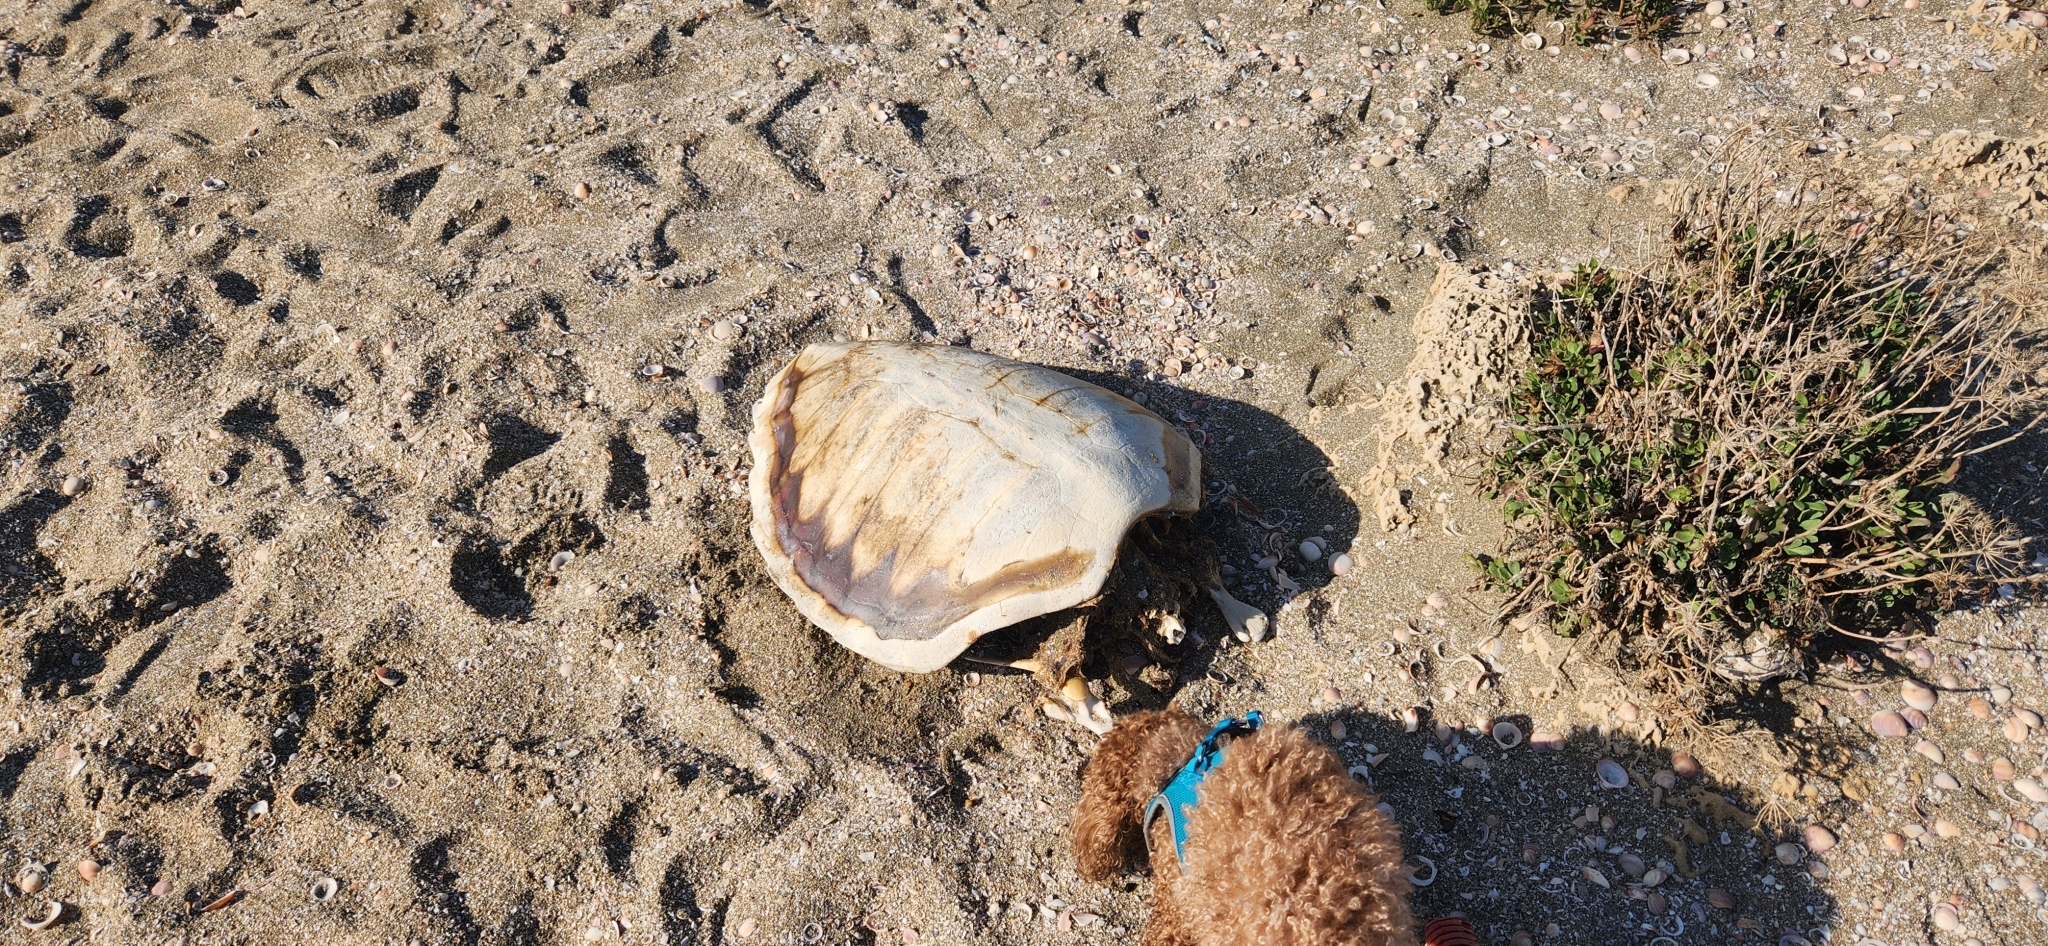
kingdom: Animalia
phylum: Chordata
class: Testudines
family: Cheloniidae
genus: Caretta
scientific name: Caretta caretta
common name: Loggerhead sea turtle
